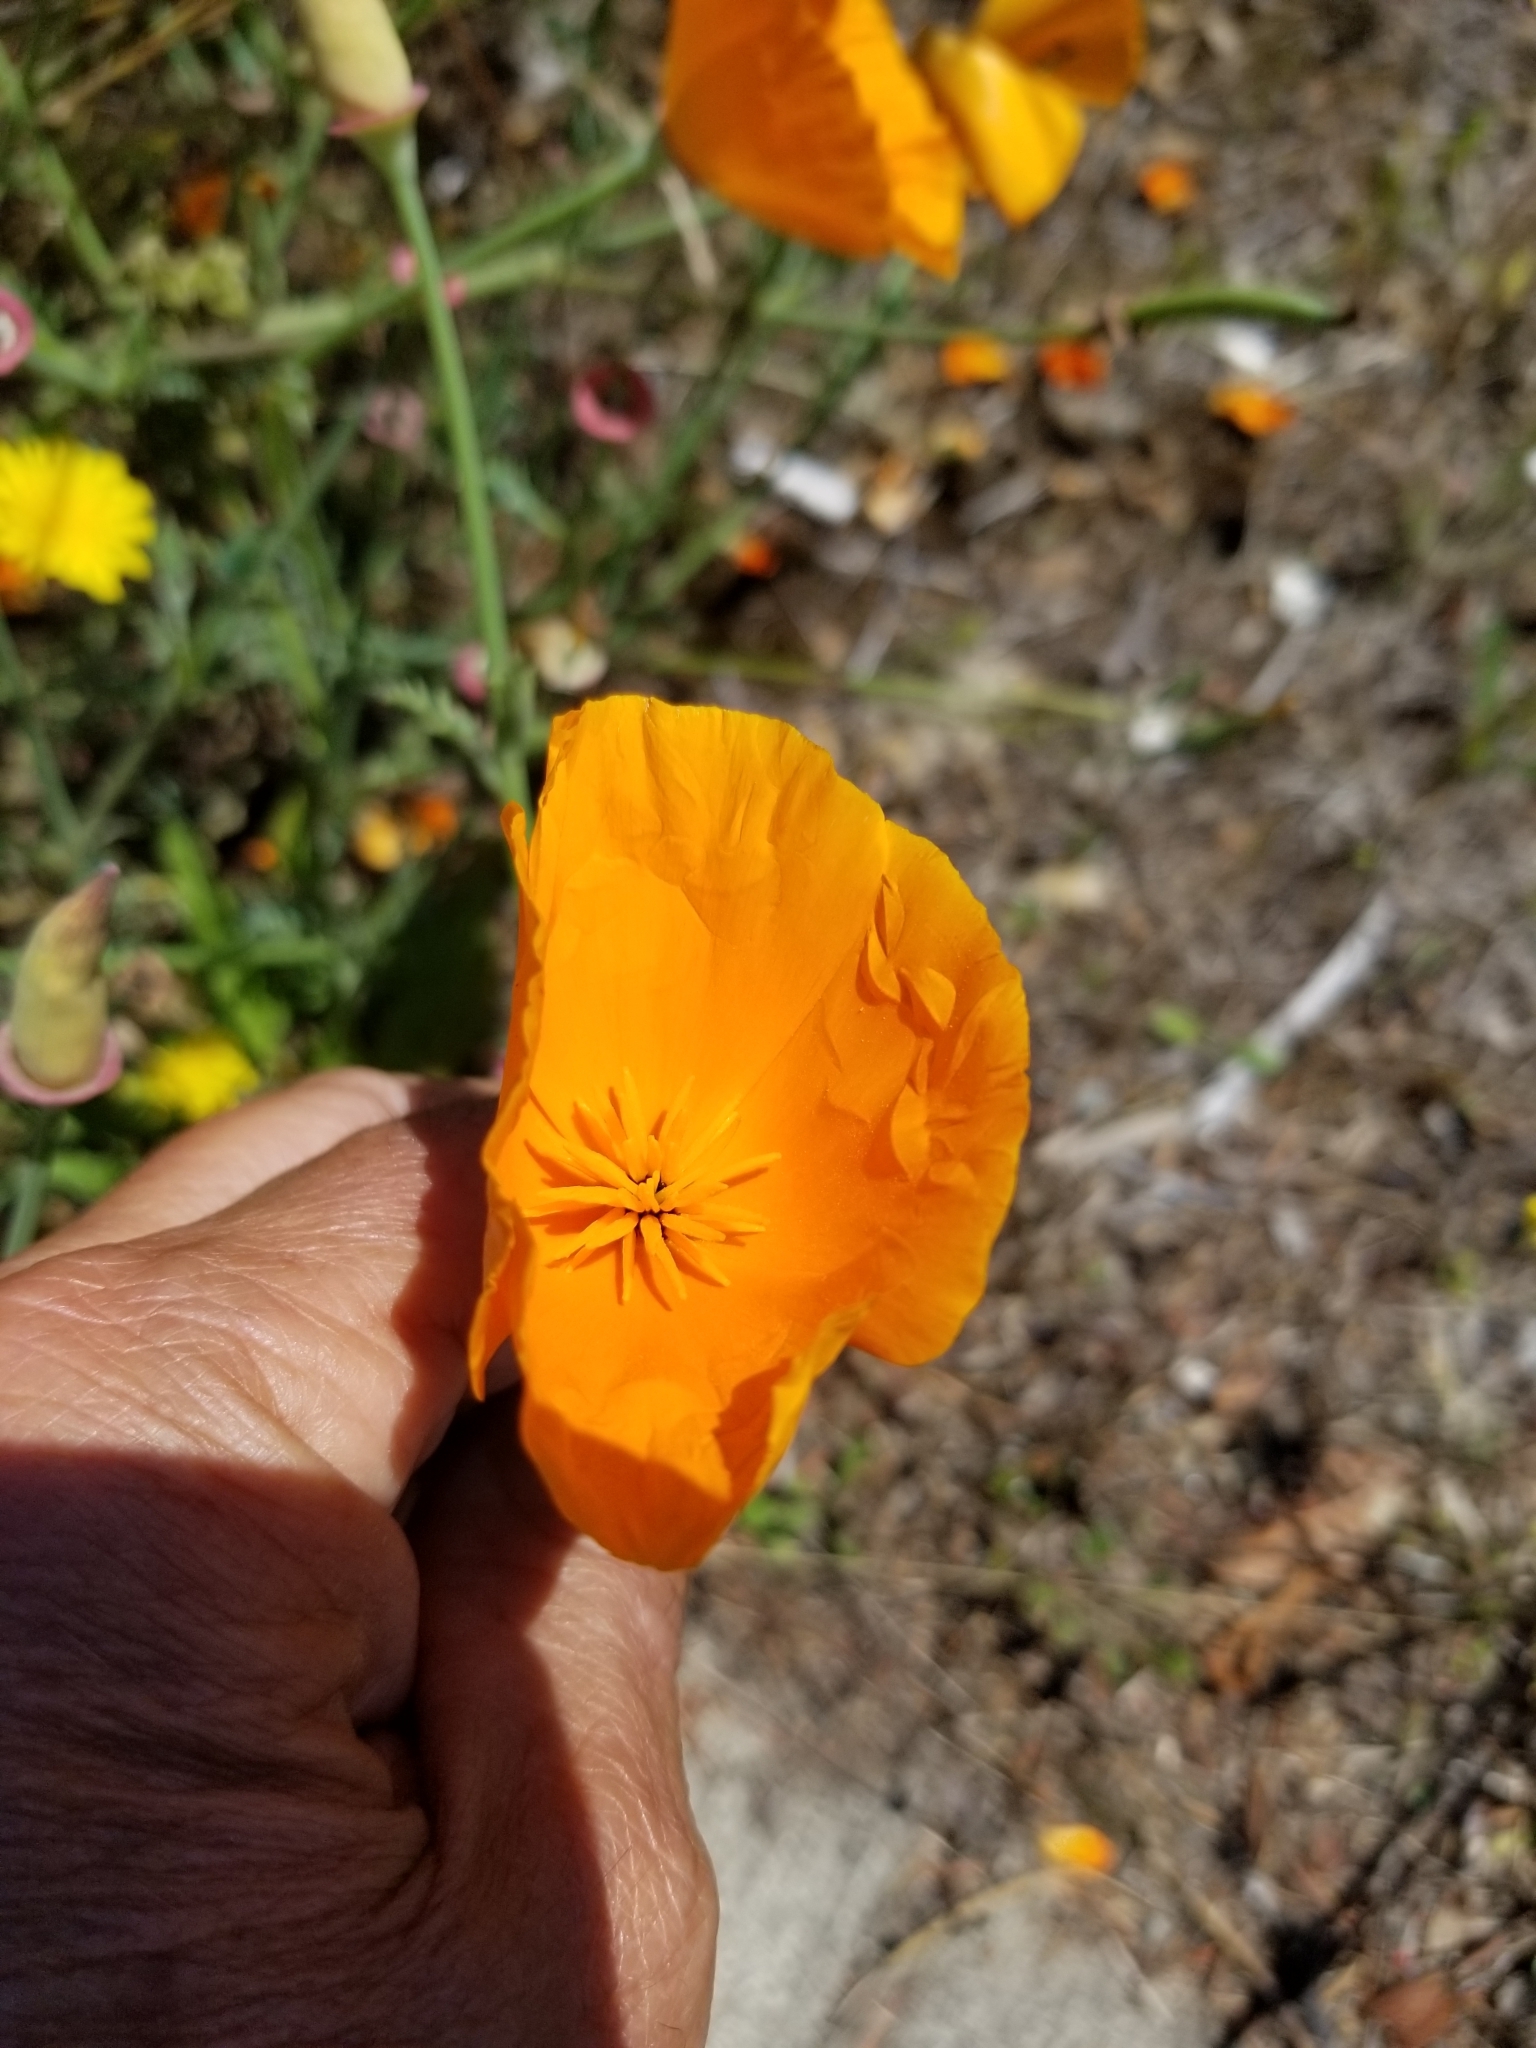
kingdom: Plantae
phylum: Tracheophyta
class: Magnoliopsida
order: Ranunculales
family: Papaveraceae
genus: Eschscholzia
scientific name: Eschscholzia californica
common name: California poppy
